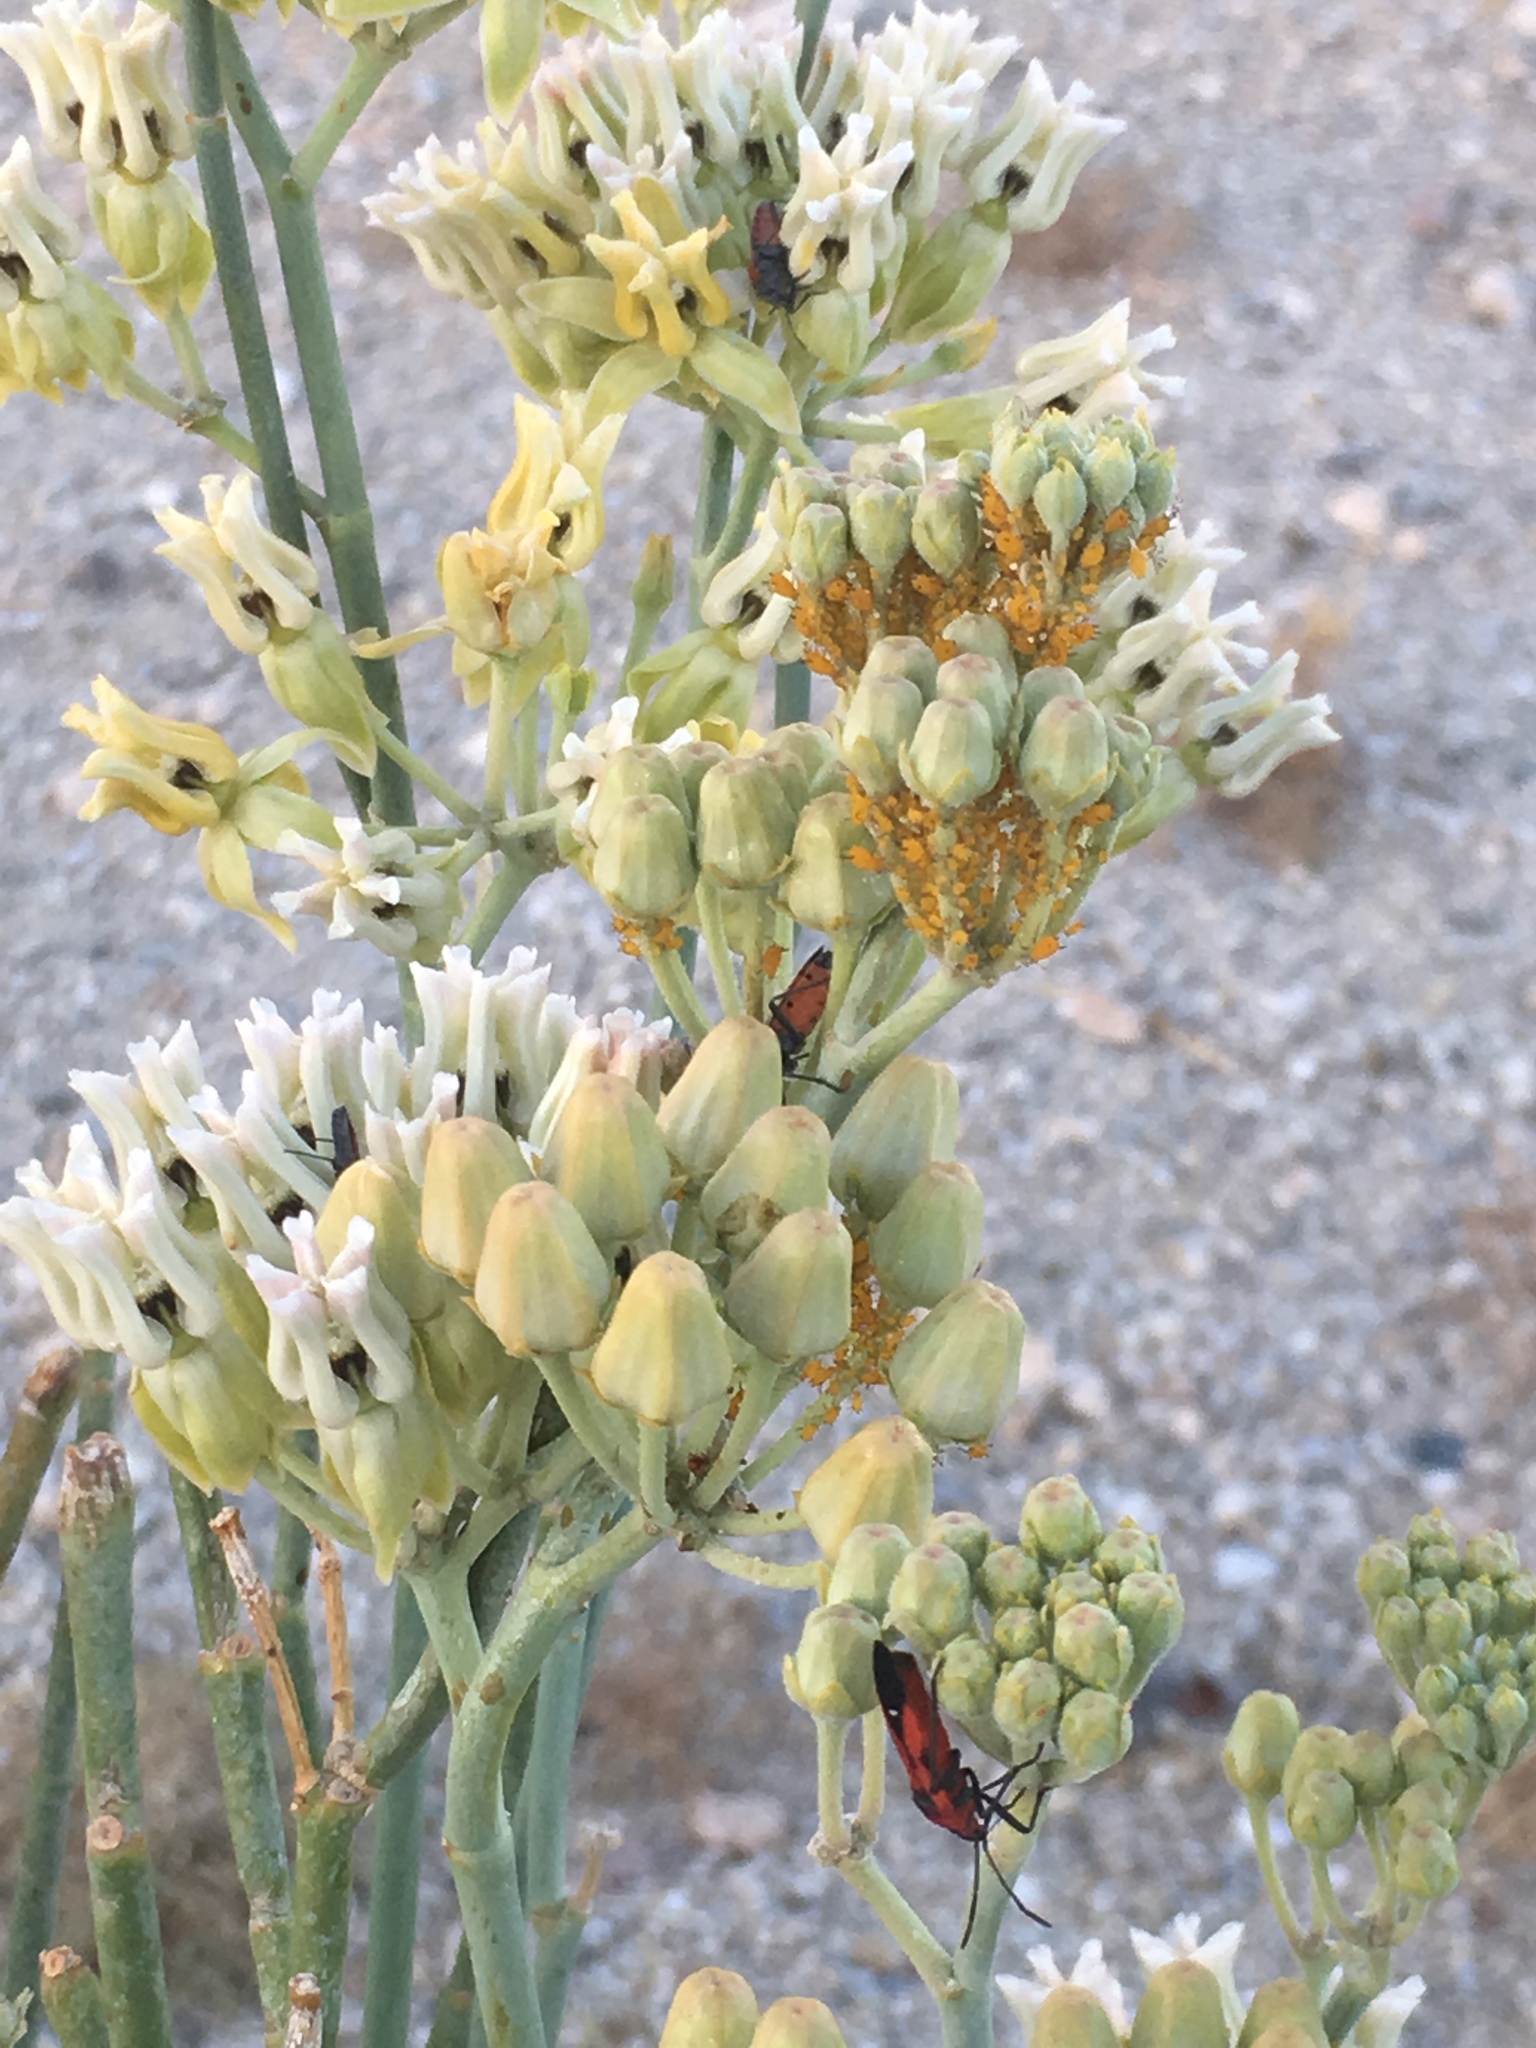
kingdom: Plantae
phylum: Tracheophyta
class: Magnoliopsida
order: Gentianales
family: Apocynaceae
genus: Asclepias
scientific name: Asclepias subulata
